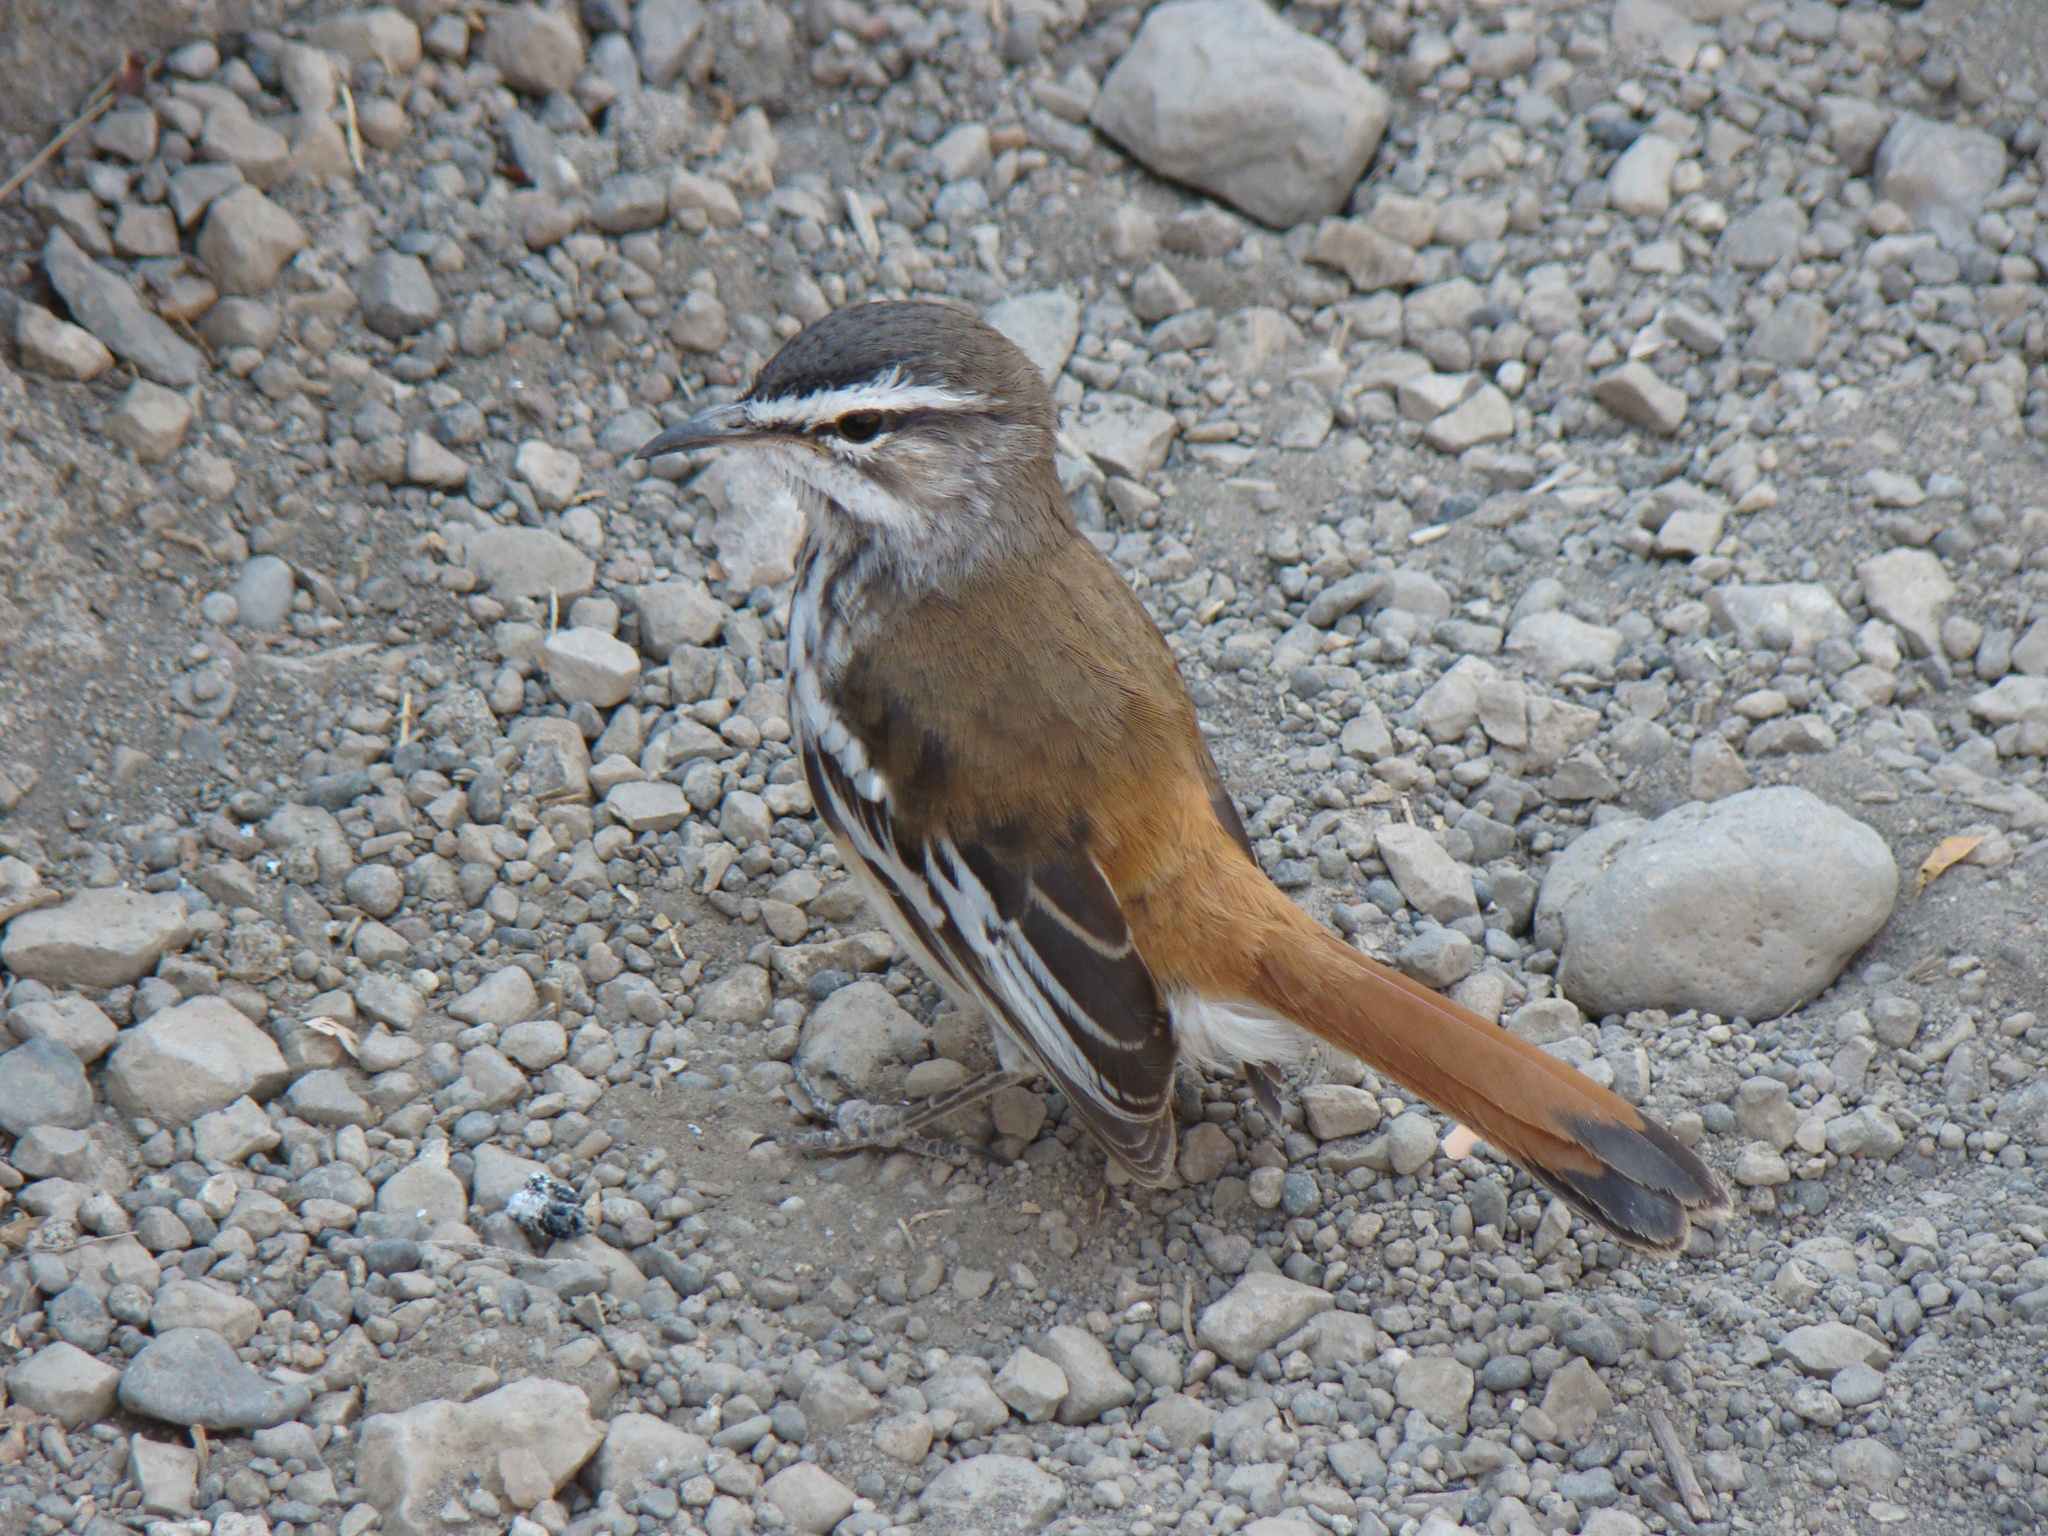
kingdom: Animalia
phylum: Chordata
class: Aves
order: Passeriformes
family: Muscicapidae
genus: Erythropygia
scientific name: Erythropygia leucophrys
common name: White-browed scrub robin
